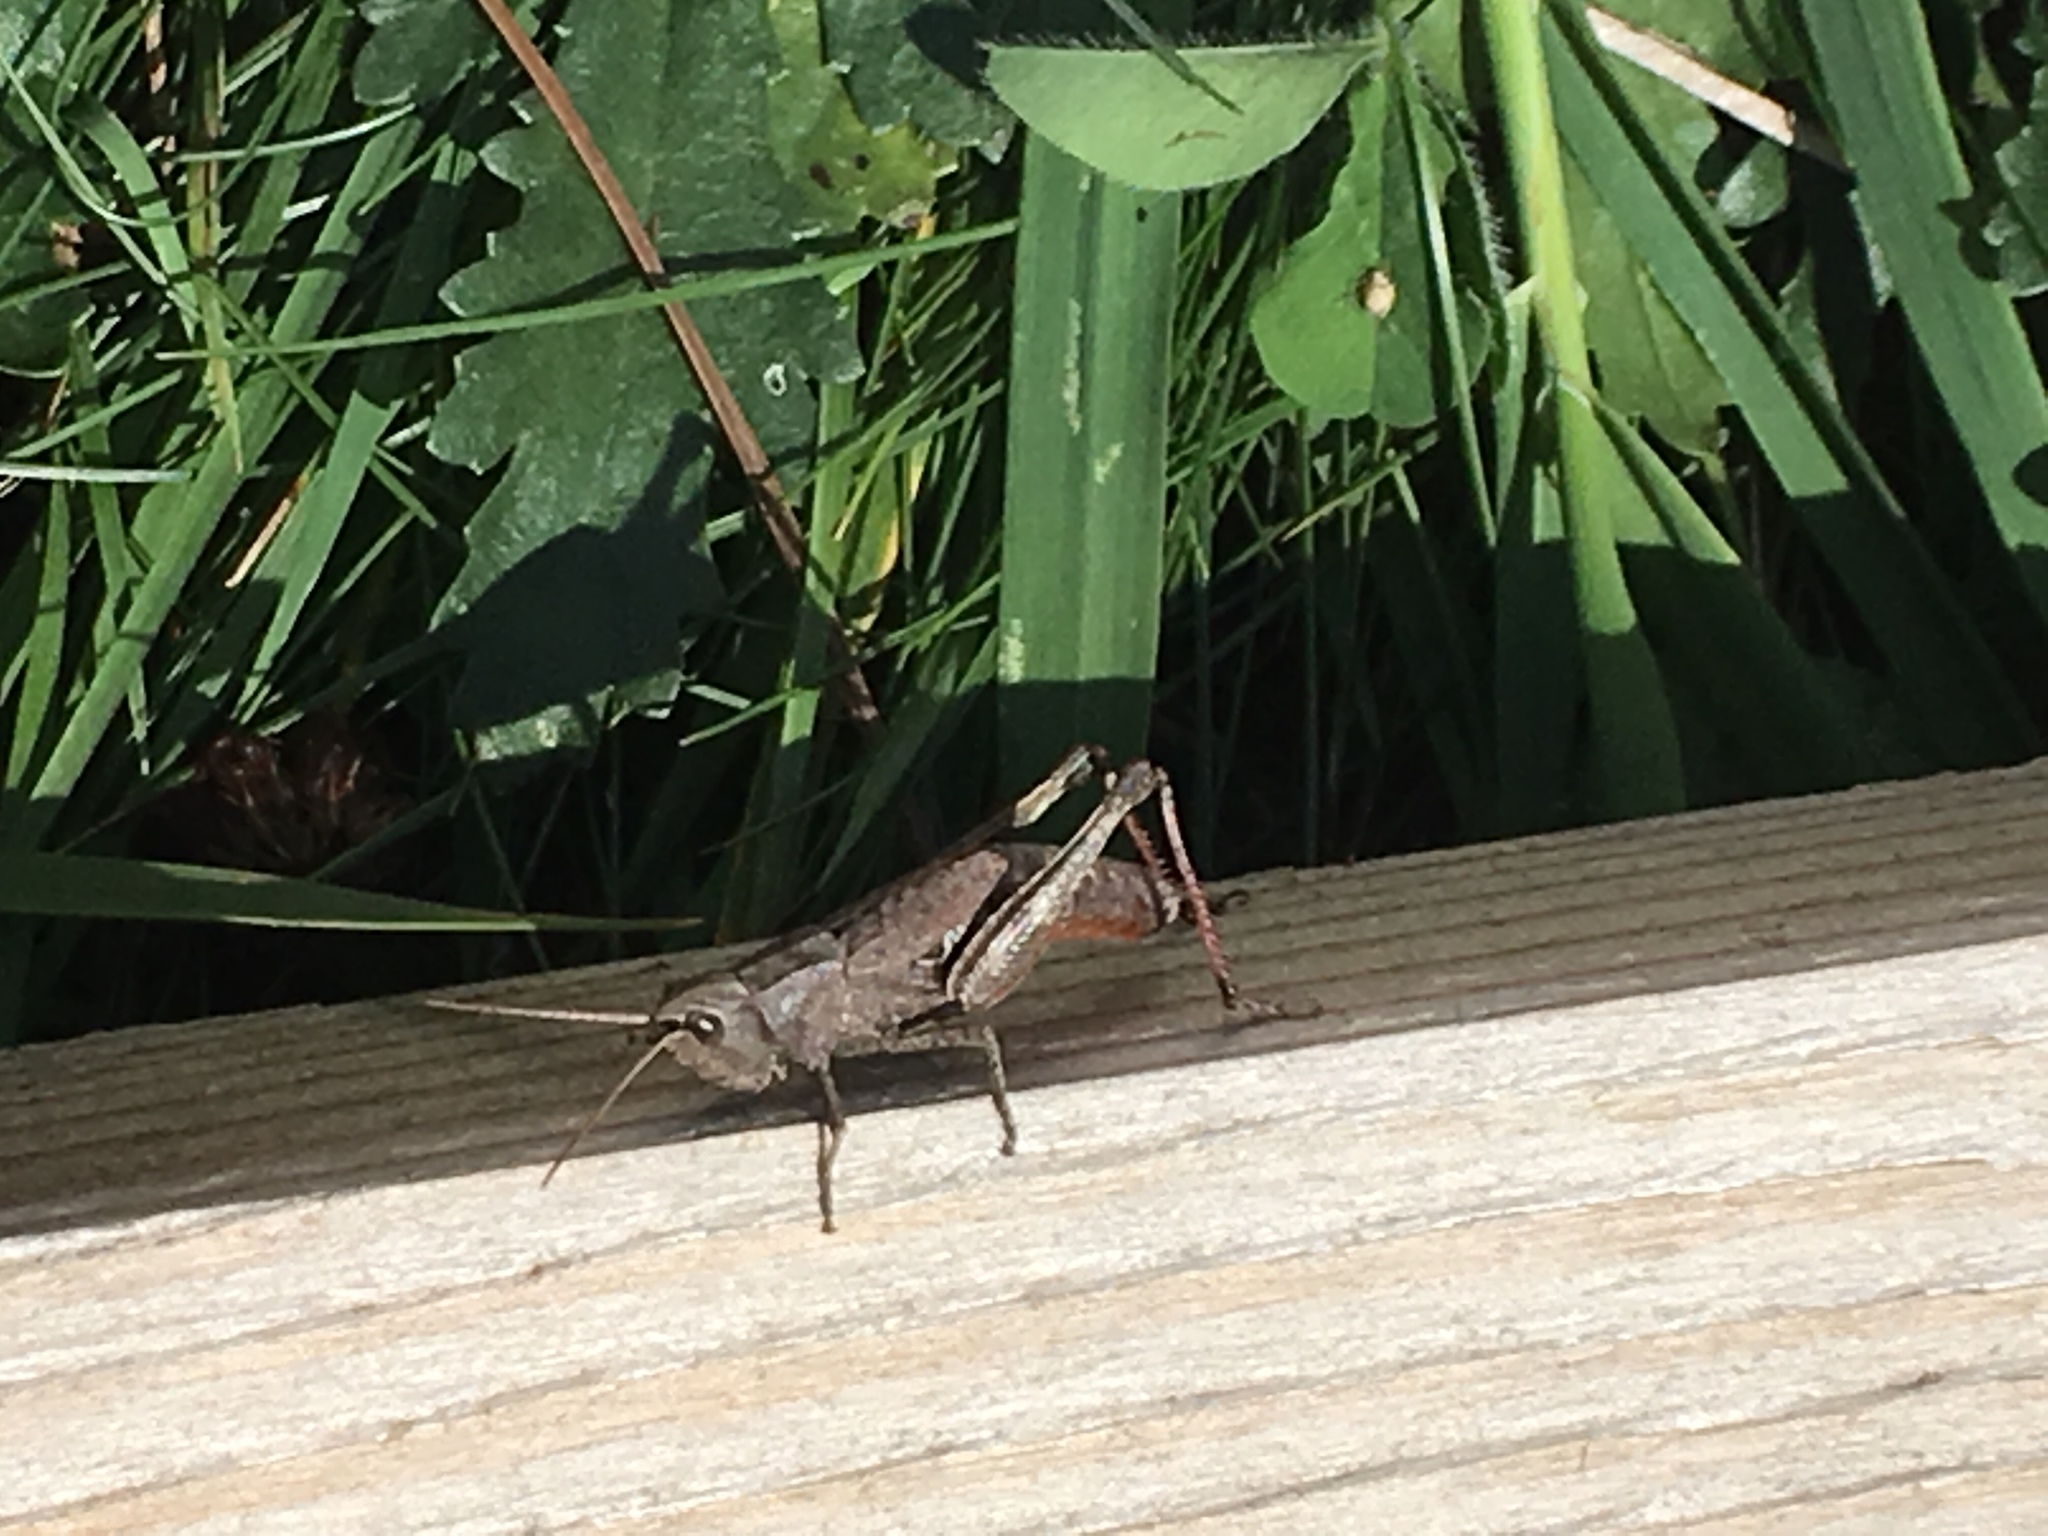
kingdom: Animalia
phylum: Arthropoda
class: Insecta
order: Orthoptera
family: Acrididae
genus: Chloealtis
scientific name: Chloealtis conspersa
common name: Sprinkled broad-winged grasshopper
